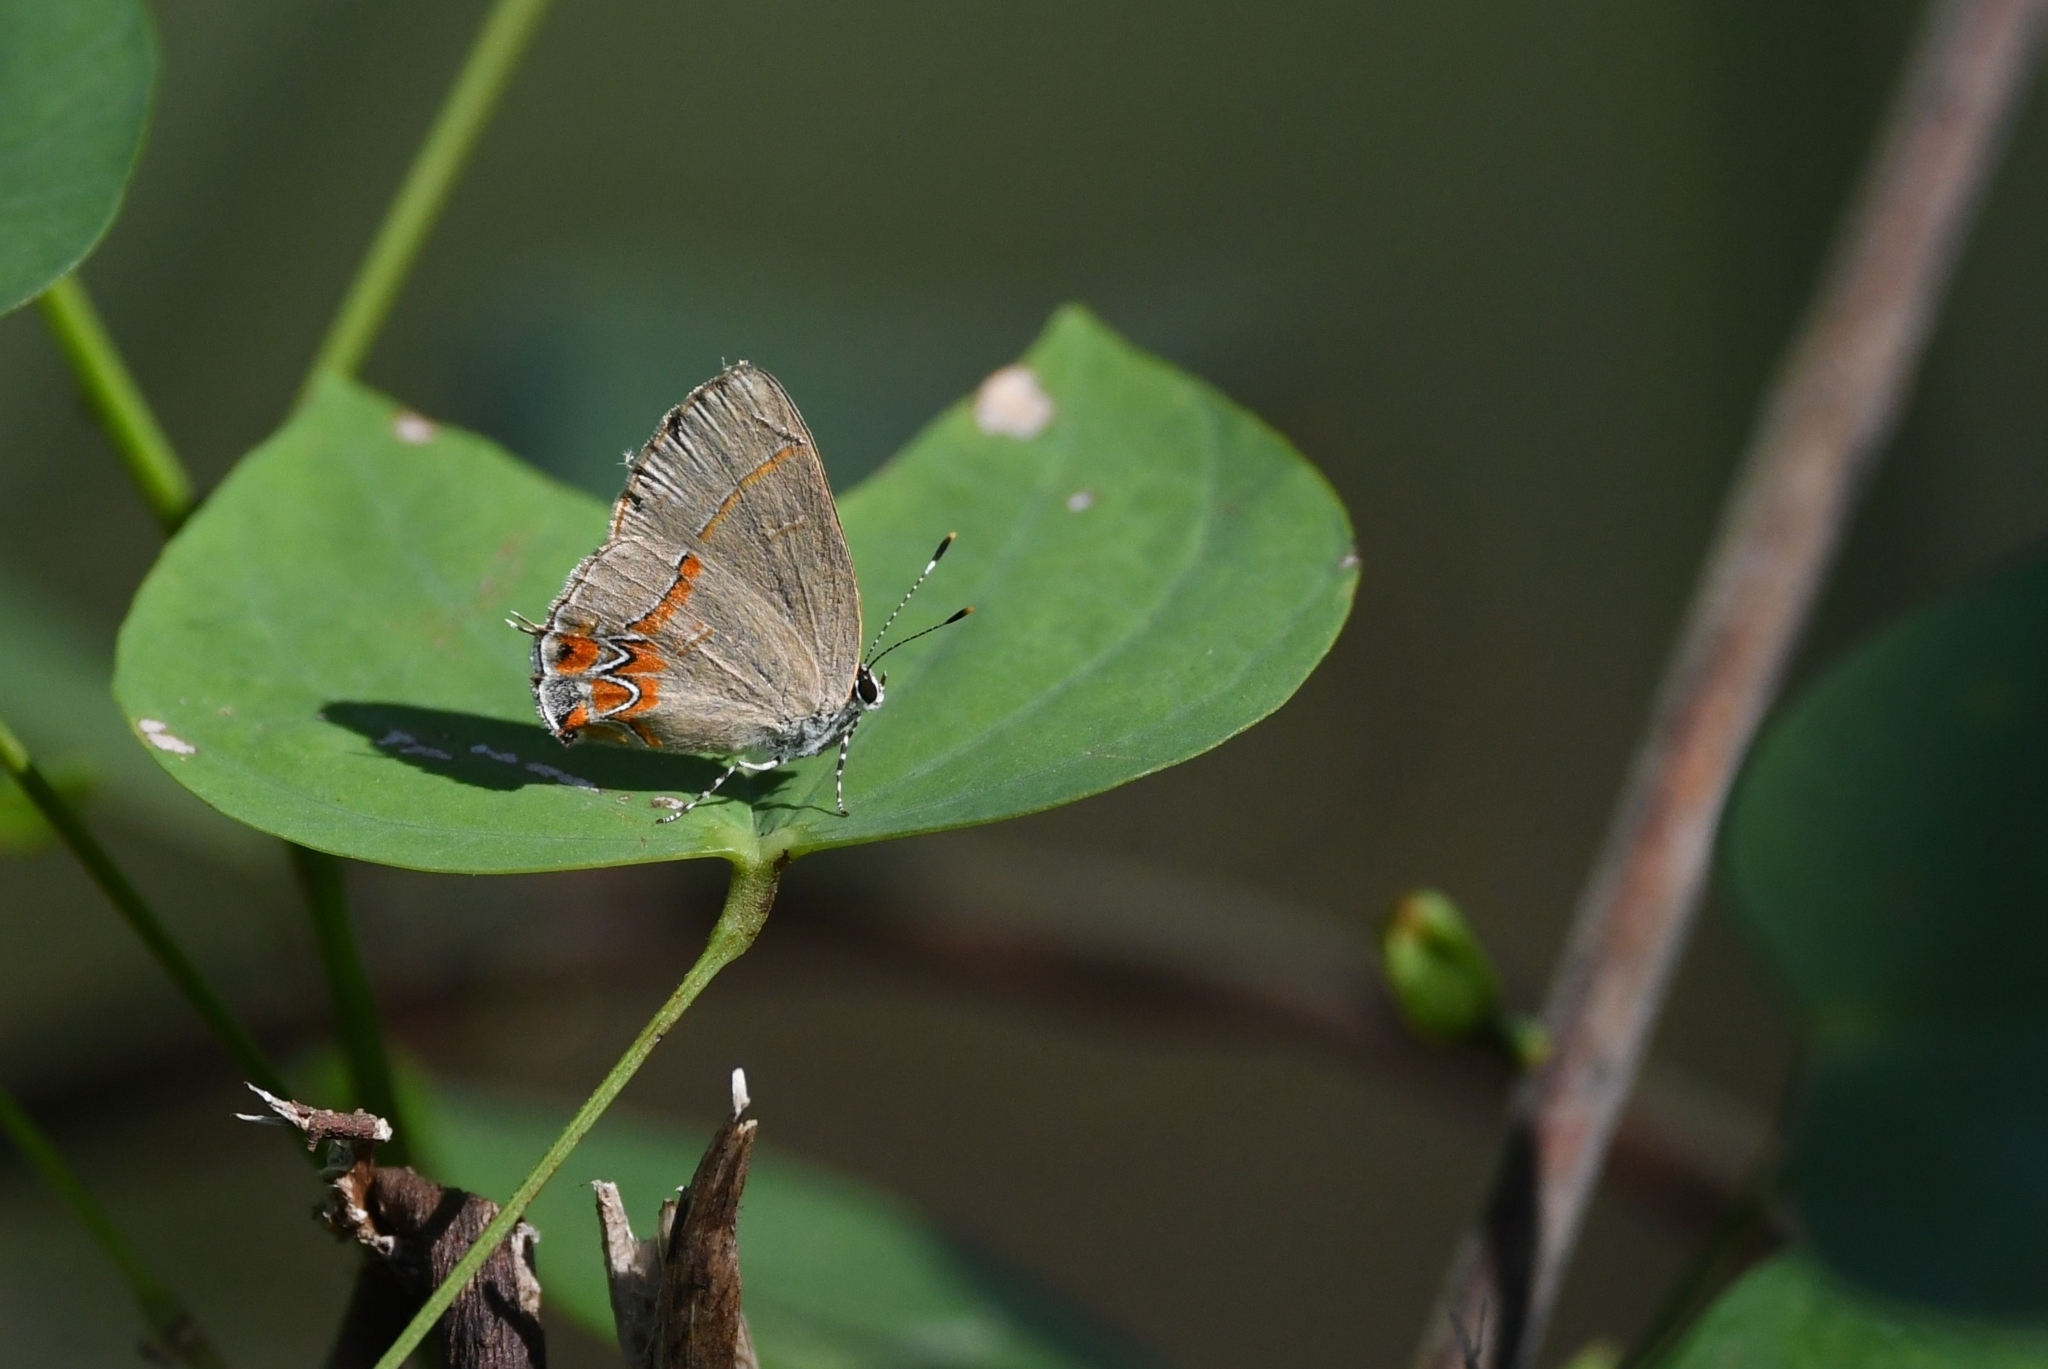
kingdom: Animalia
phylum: Arthropoda
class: Insecta
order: Lepidoptera
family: Lycaenidae
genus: Calycopis
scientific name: Calycopis isobeon
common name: Dusky-blue groundstreak
